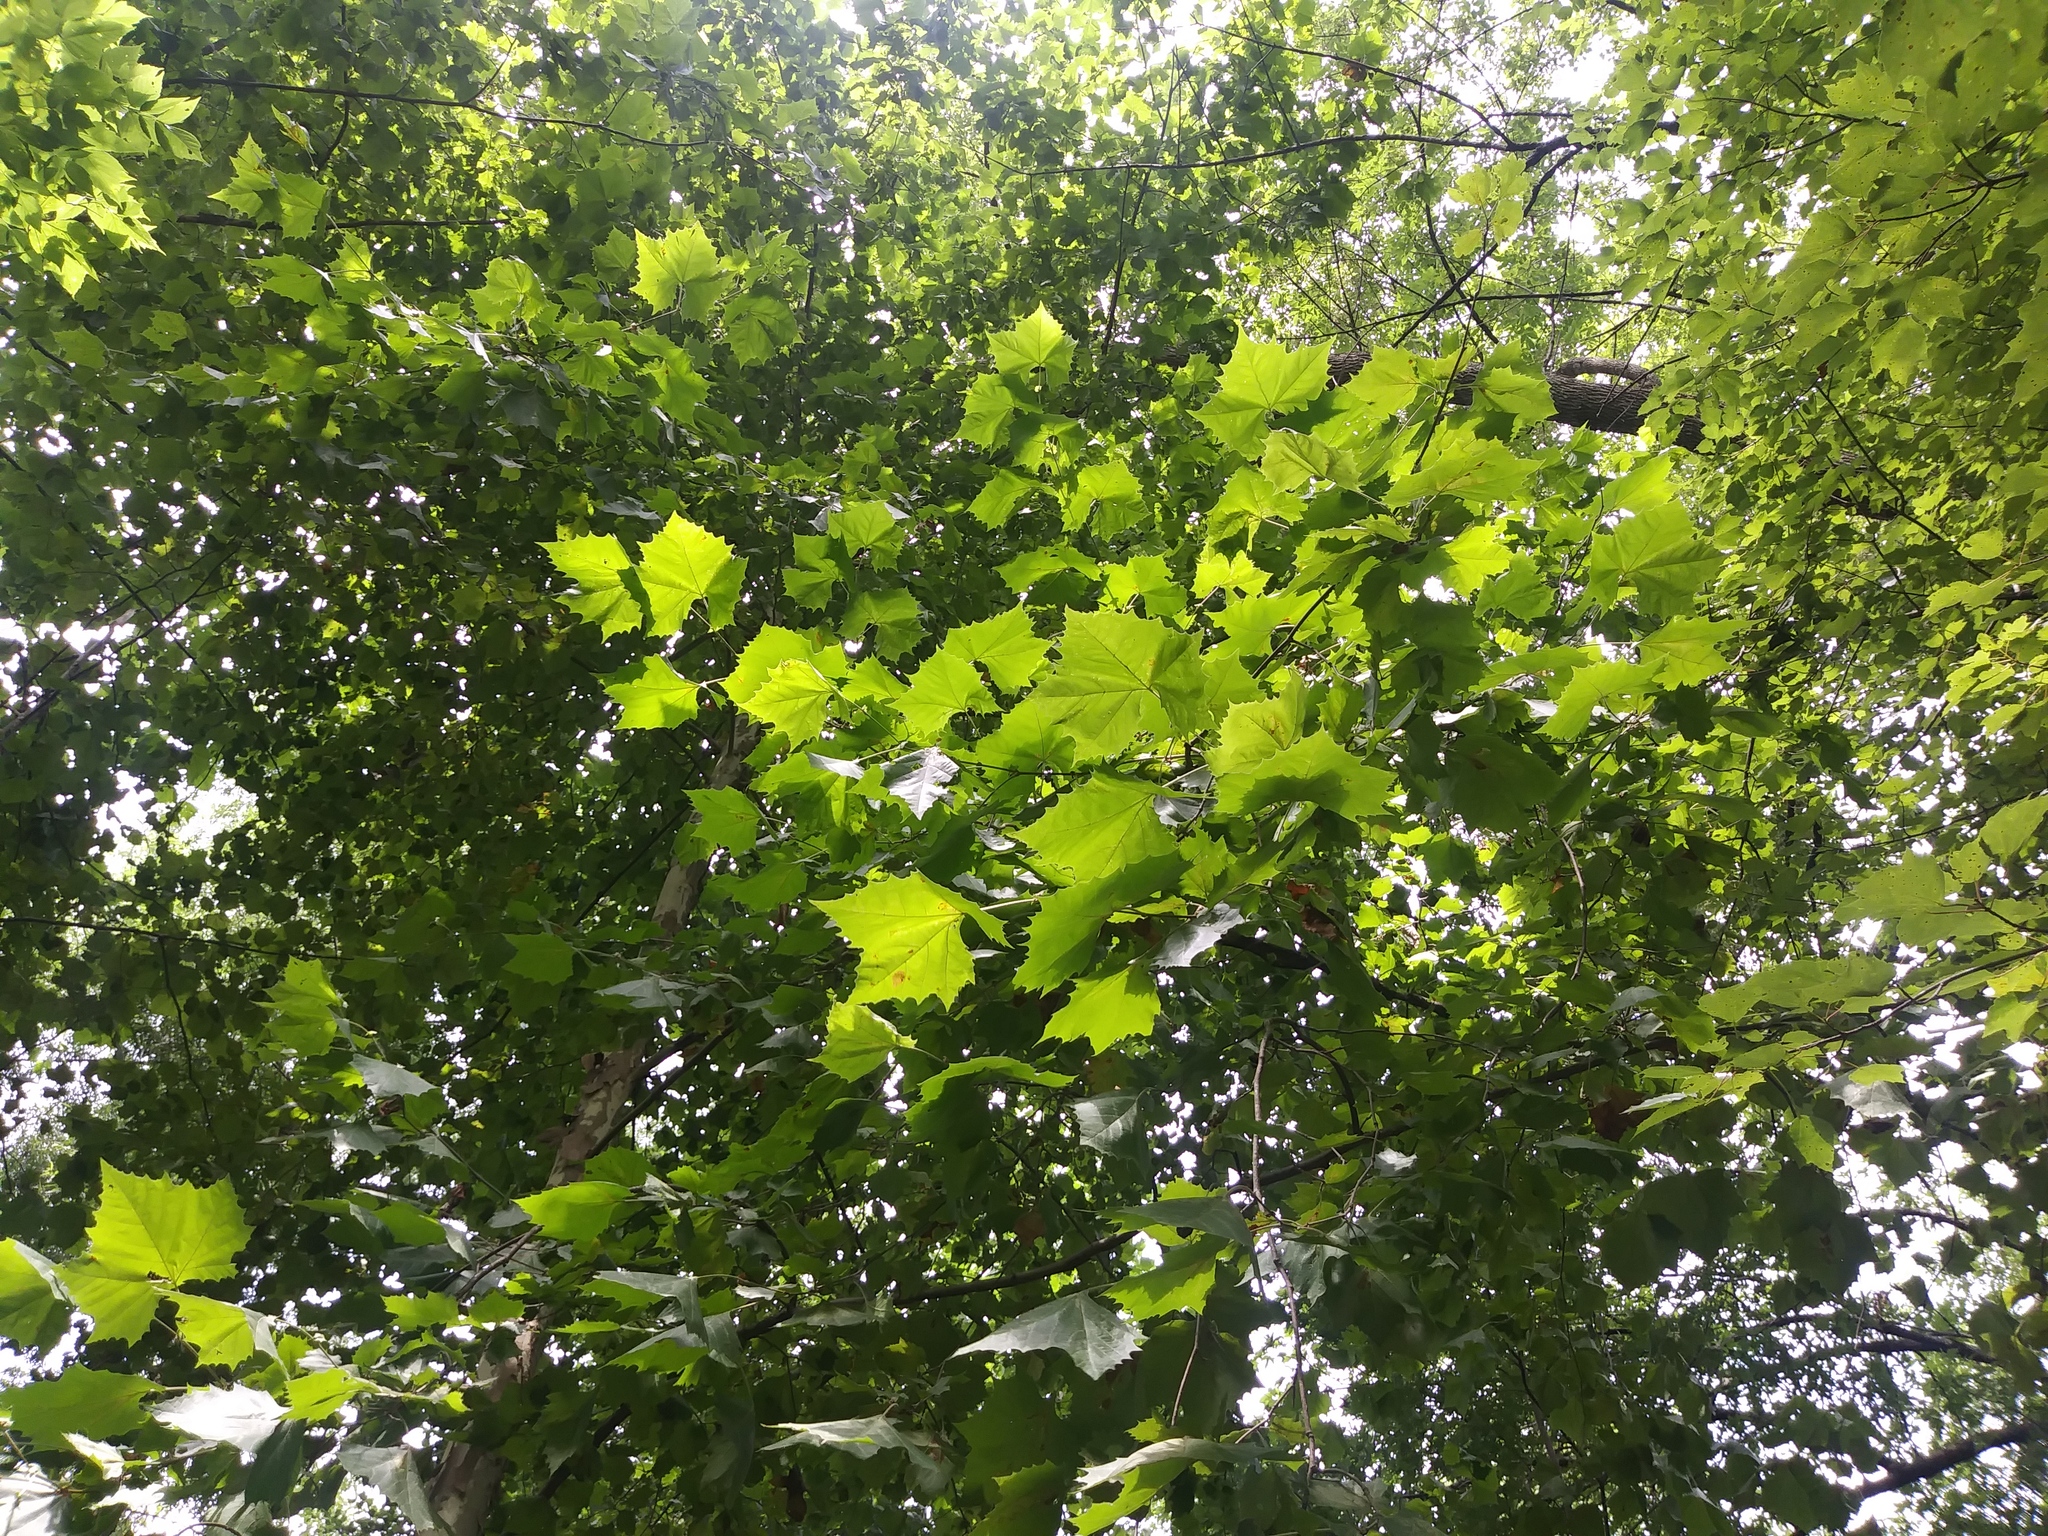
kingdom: Plantae
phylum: Tracheophyta
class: Magnoliopsida
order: Proteales
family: Platanaceae
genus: Platanus
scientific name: Platanus occidentalis
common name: American sycamore
